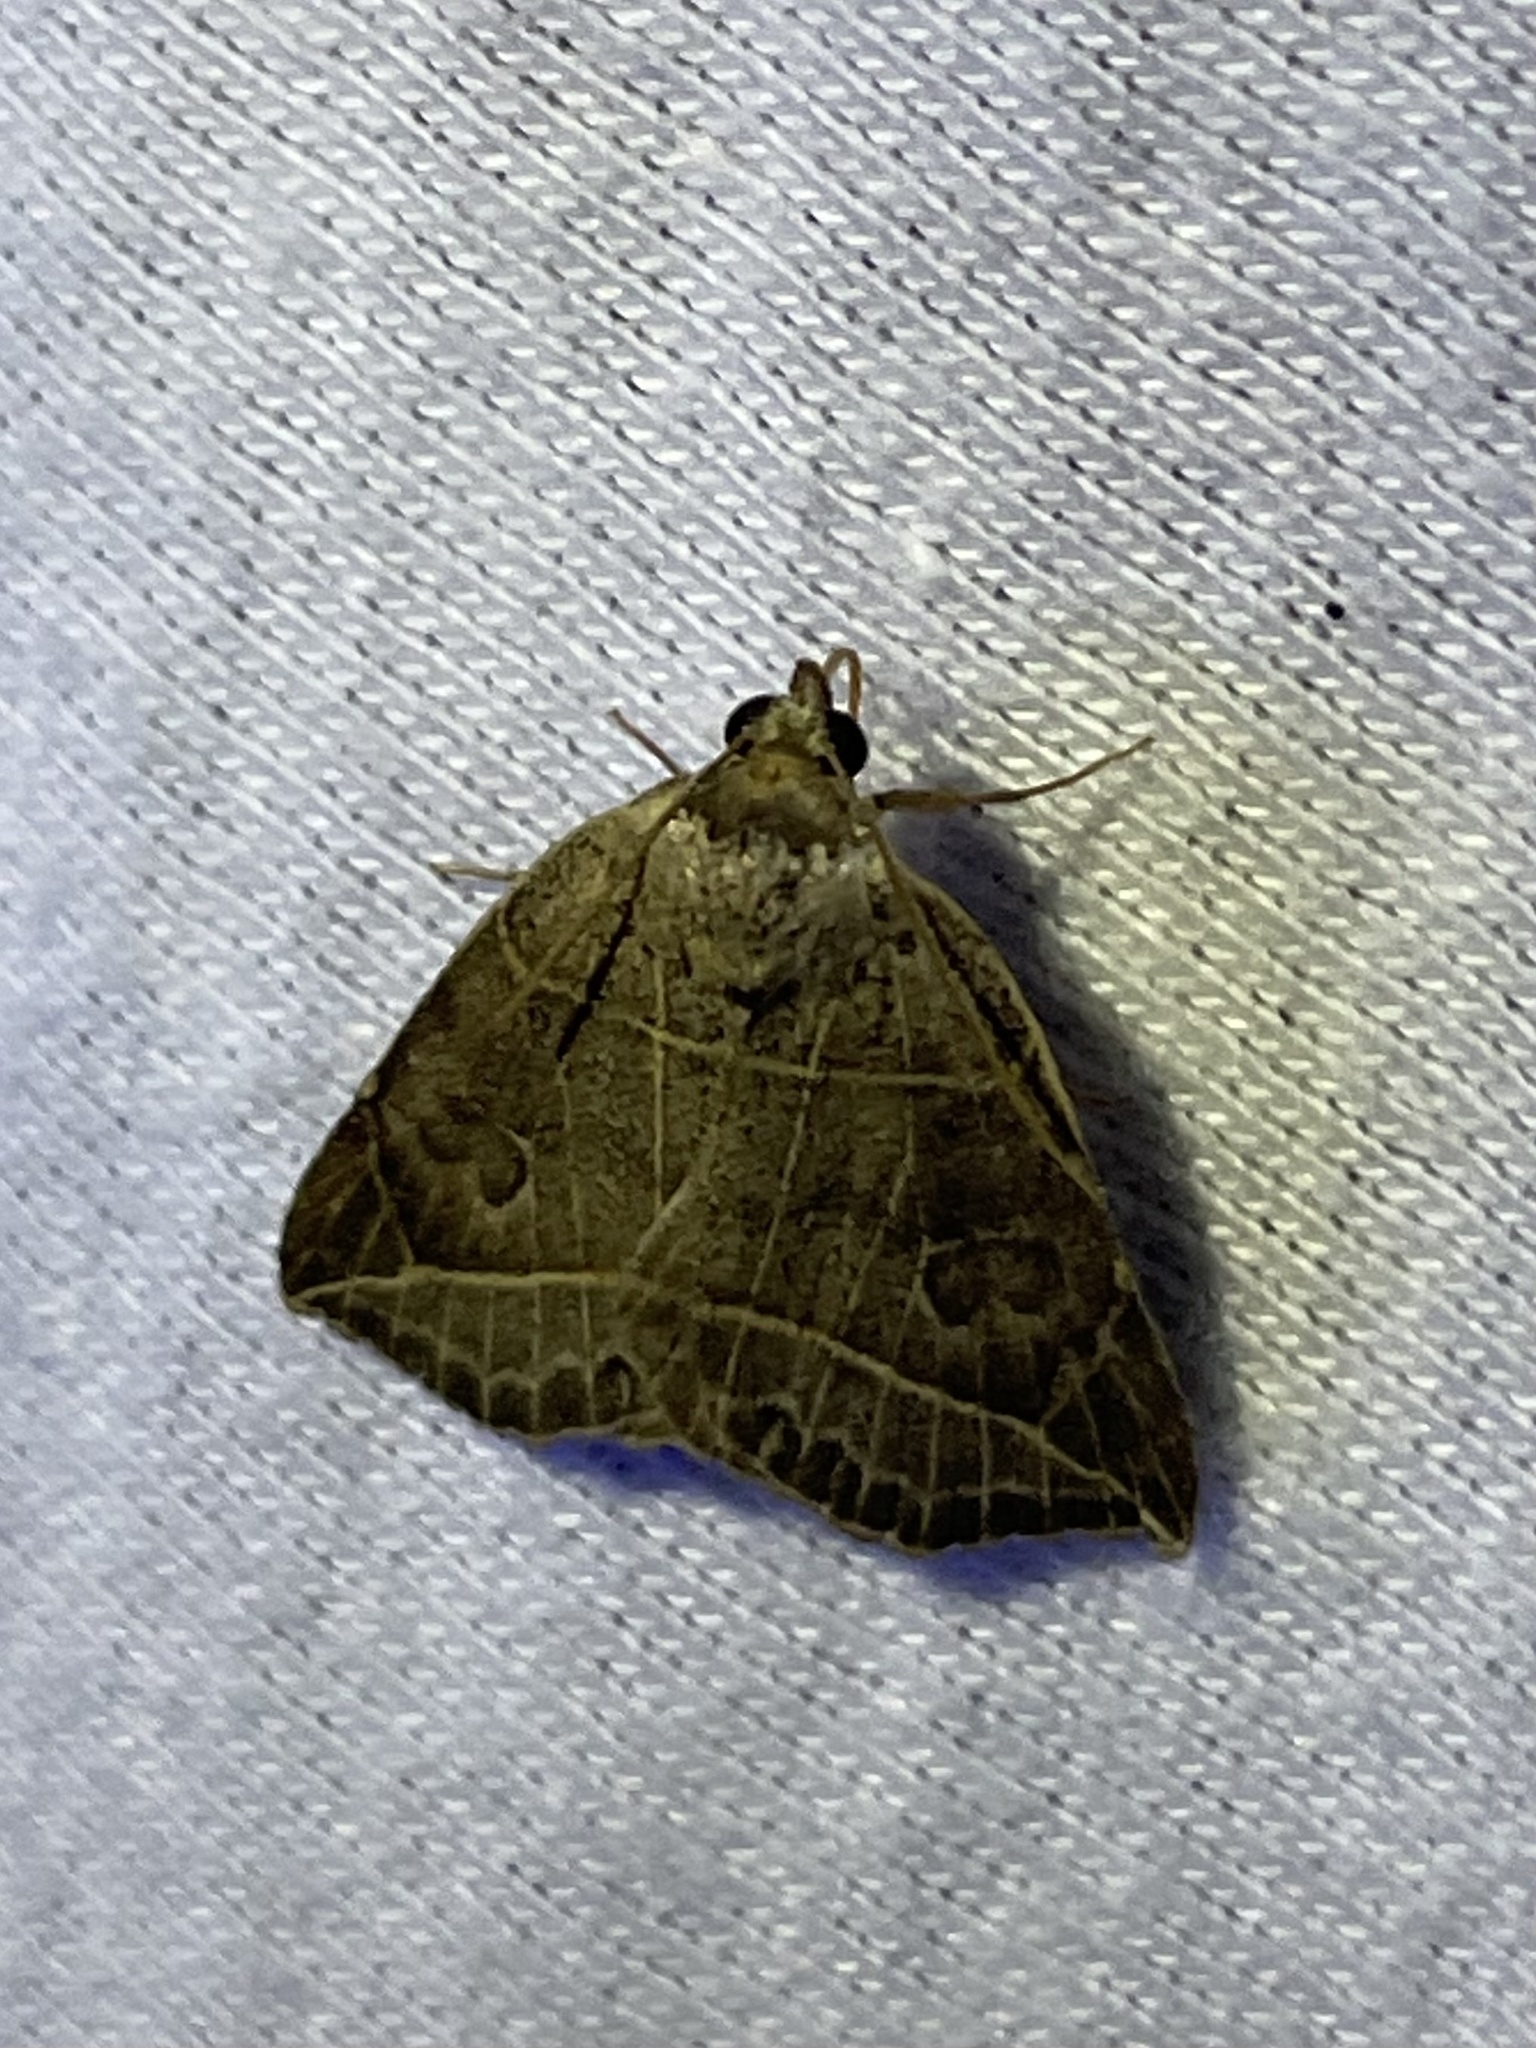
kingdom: Animalia
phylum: Arthropoda
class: Insecta
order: Lepidoptera
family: Erebidae
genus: Isogona
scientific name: Isogona tenuis
